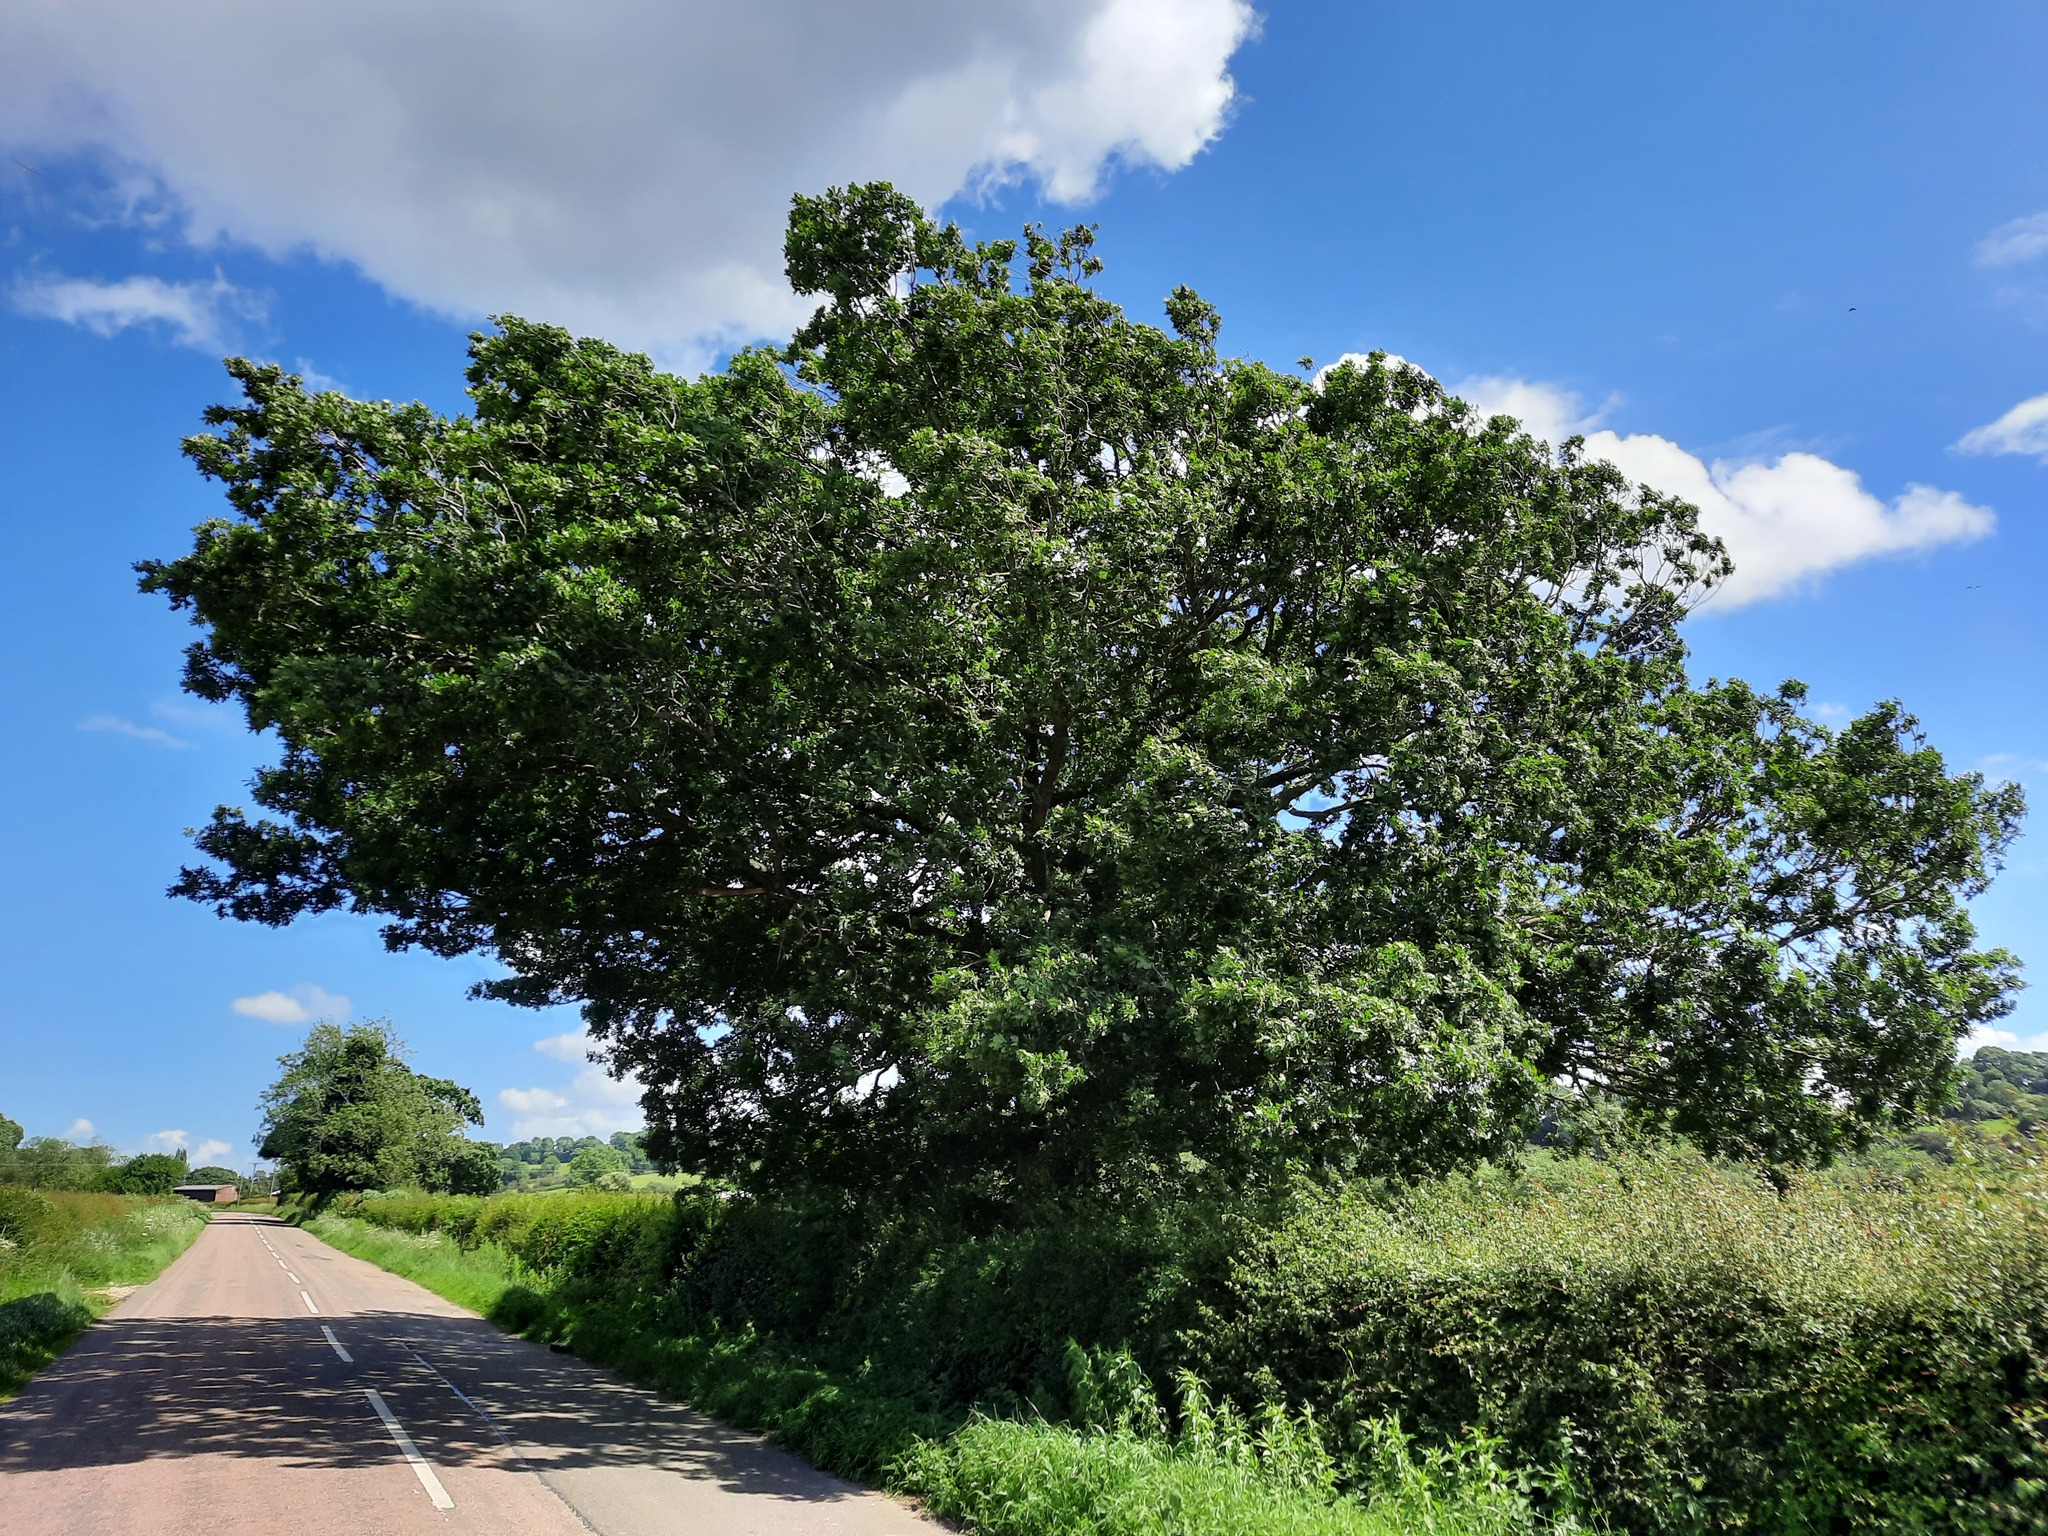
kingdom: Plantae
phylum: Tracheophyta
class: Magnoliopsida
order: Fagales
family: Fagaceae
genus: Quercus
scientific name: Quercus robur
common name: Pedunculate oak
